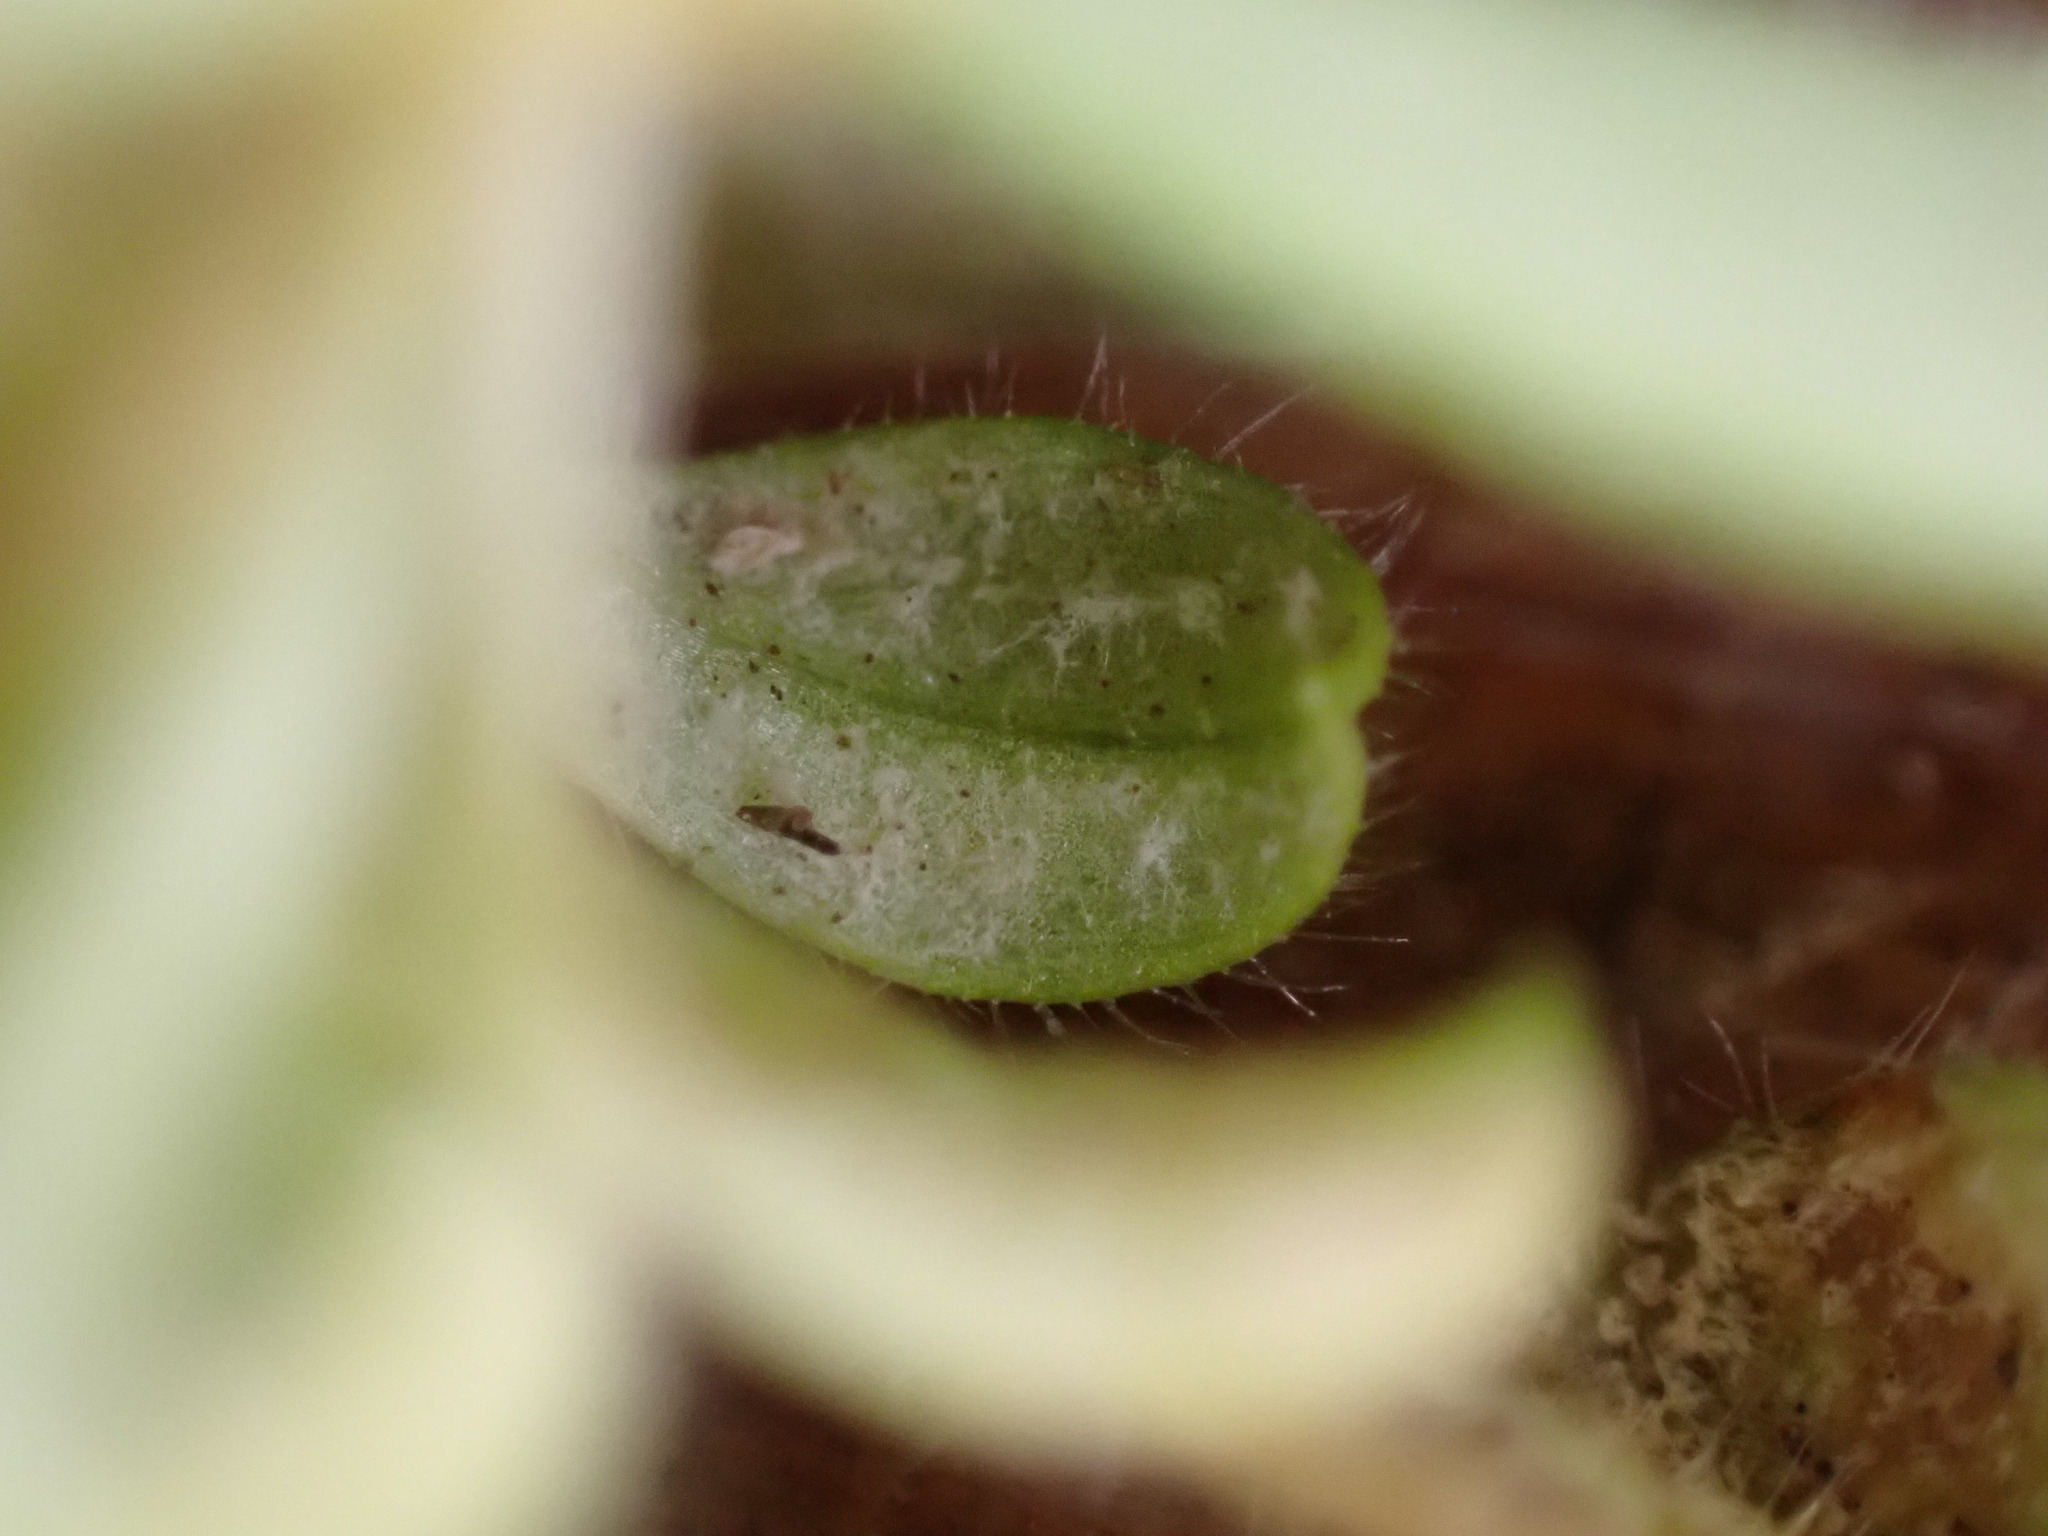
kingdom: Chromista
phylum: Oomycota
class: Peronosporea
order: Peronosporales
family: Peronosporaceae
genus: Peronospora
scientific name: Peronospora tomentosa
